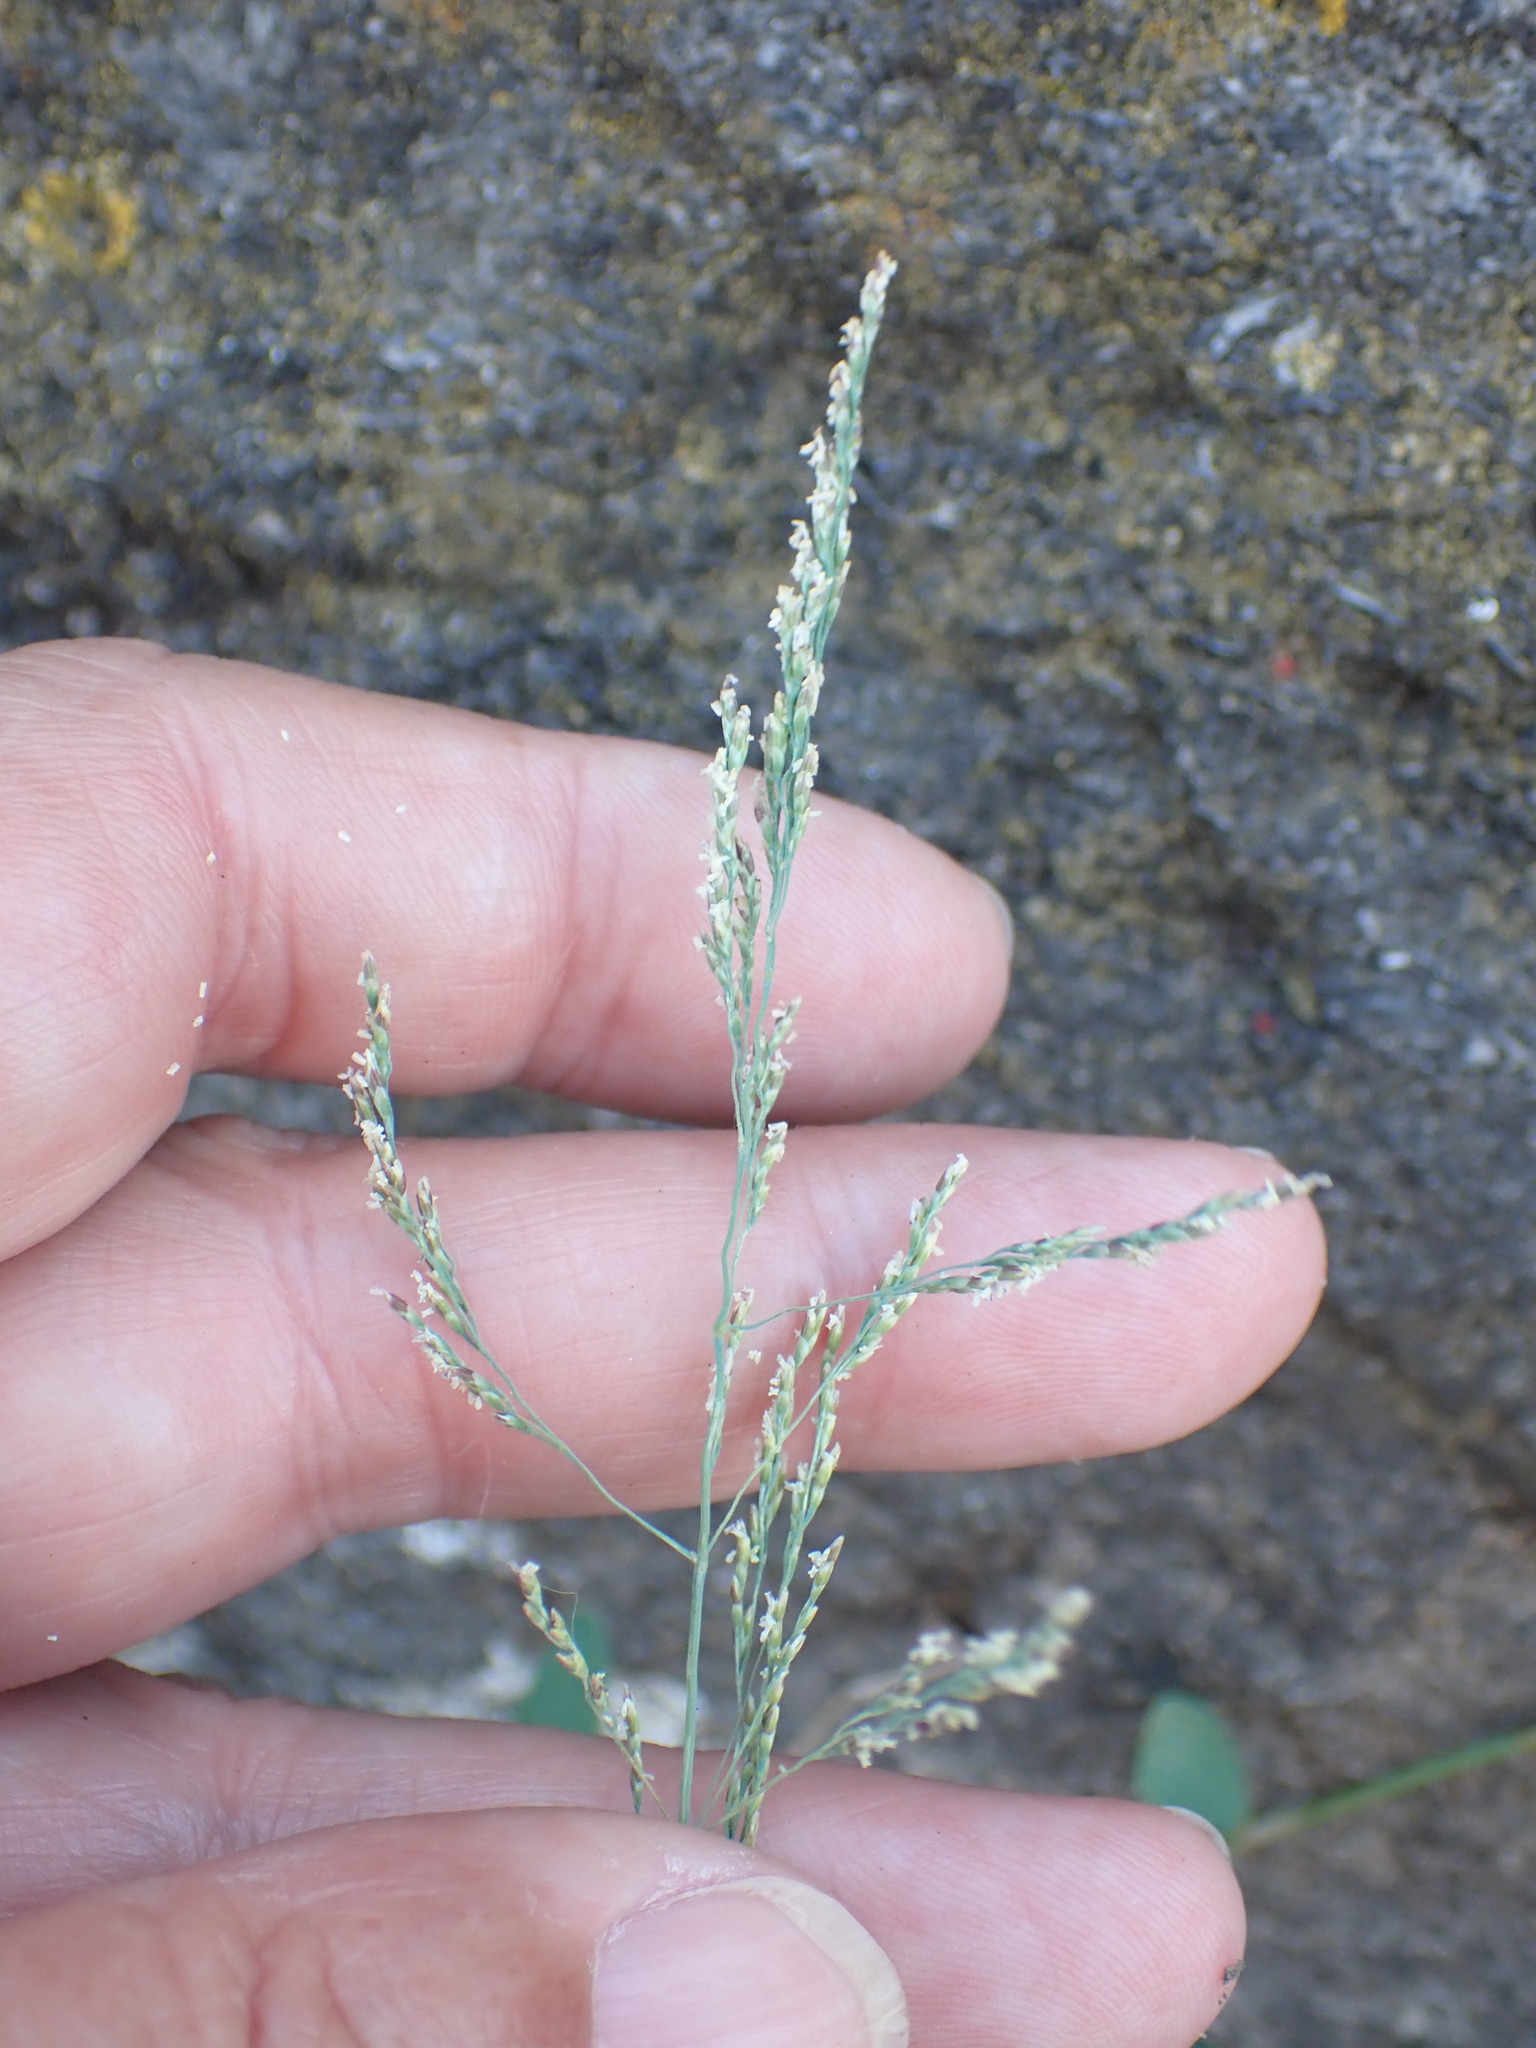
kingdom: Plantae
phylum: Tracheophyta
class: Liliopsida
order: Poales
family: Poaceae
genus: Puccinellia
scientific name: Puccinellia distans
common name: Weeping alkaligrass
